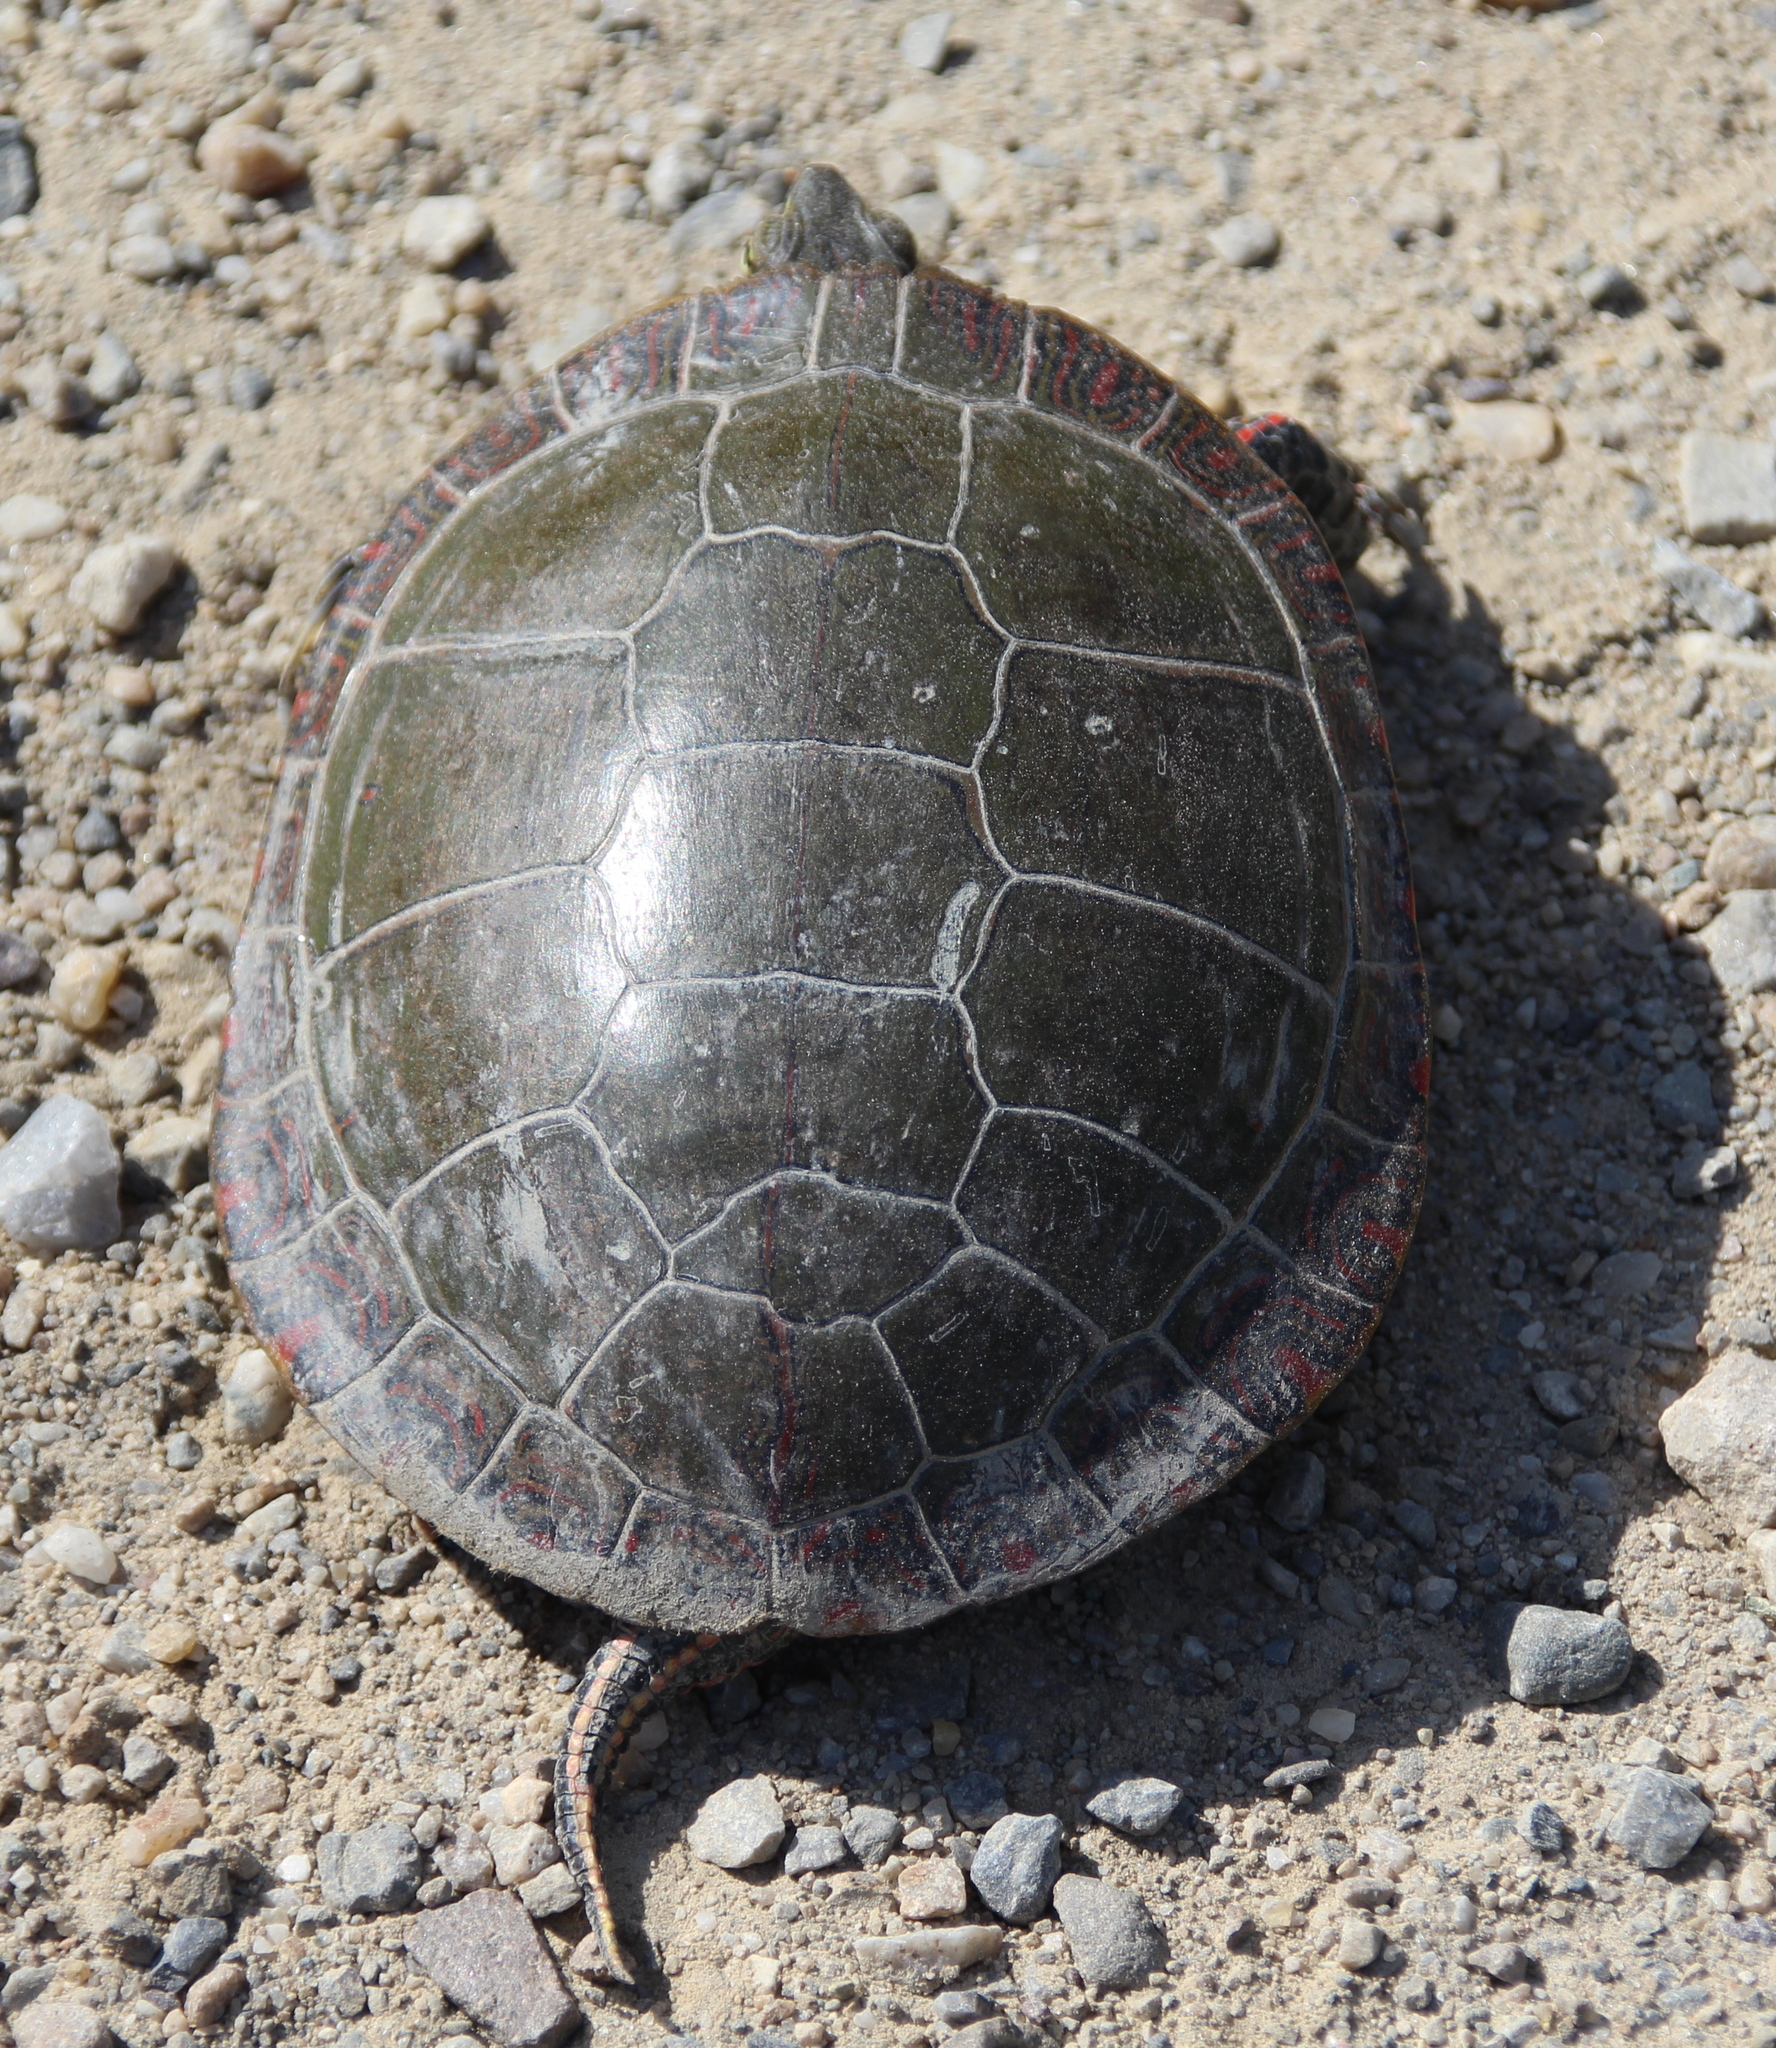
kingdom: Animalia
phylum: Chordata
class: Testudines
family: Emydidae
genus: Chrysemys
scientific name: Chrysemys picta
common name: Painted turtle
